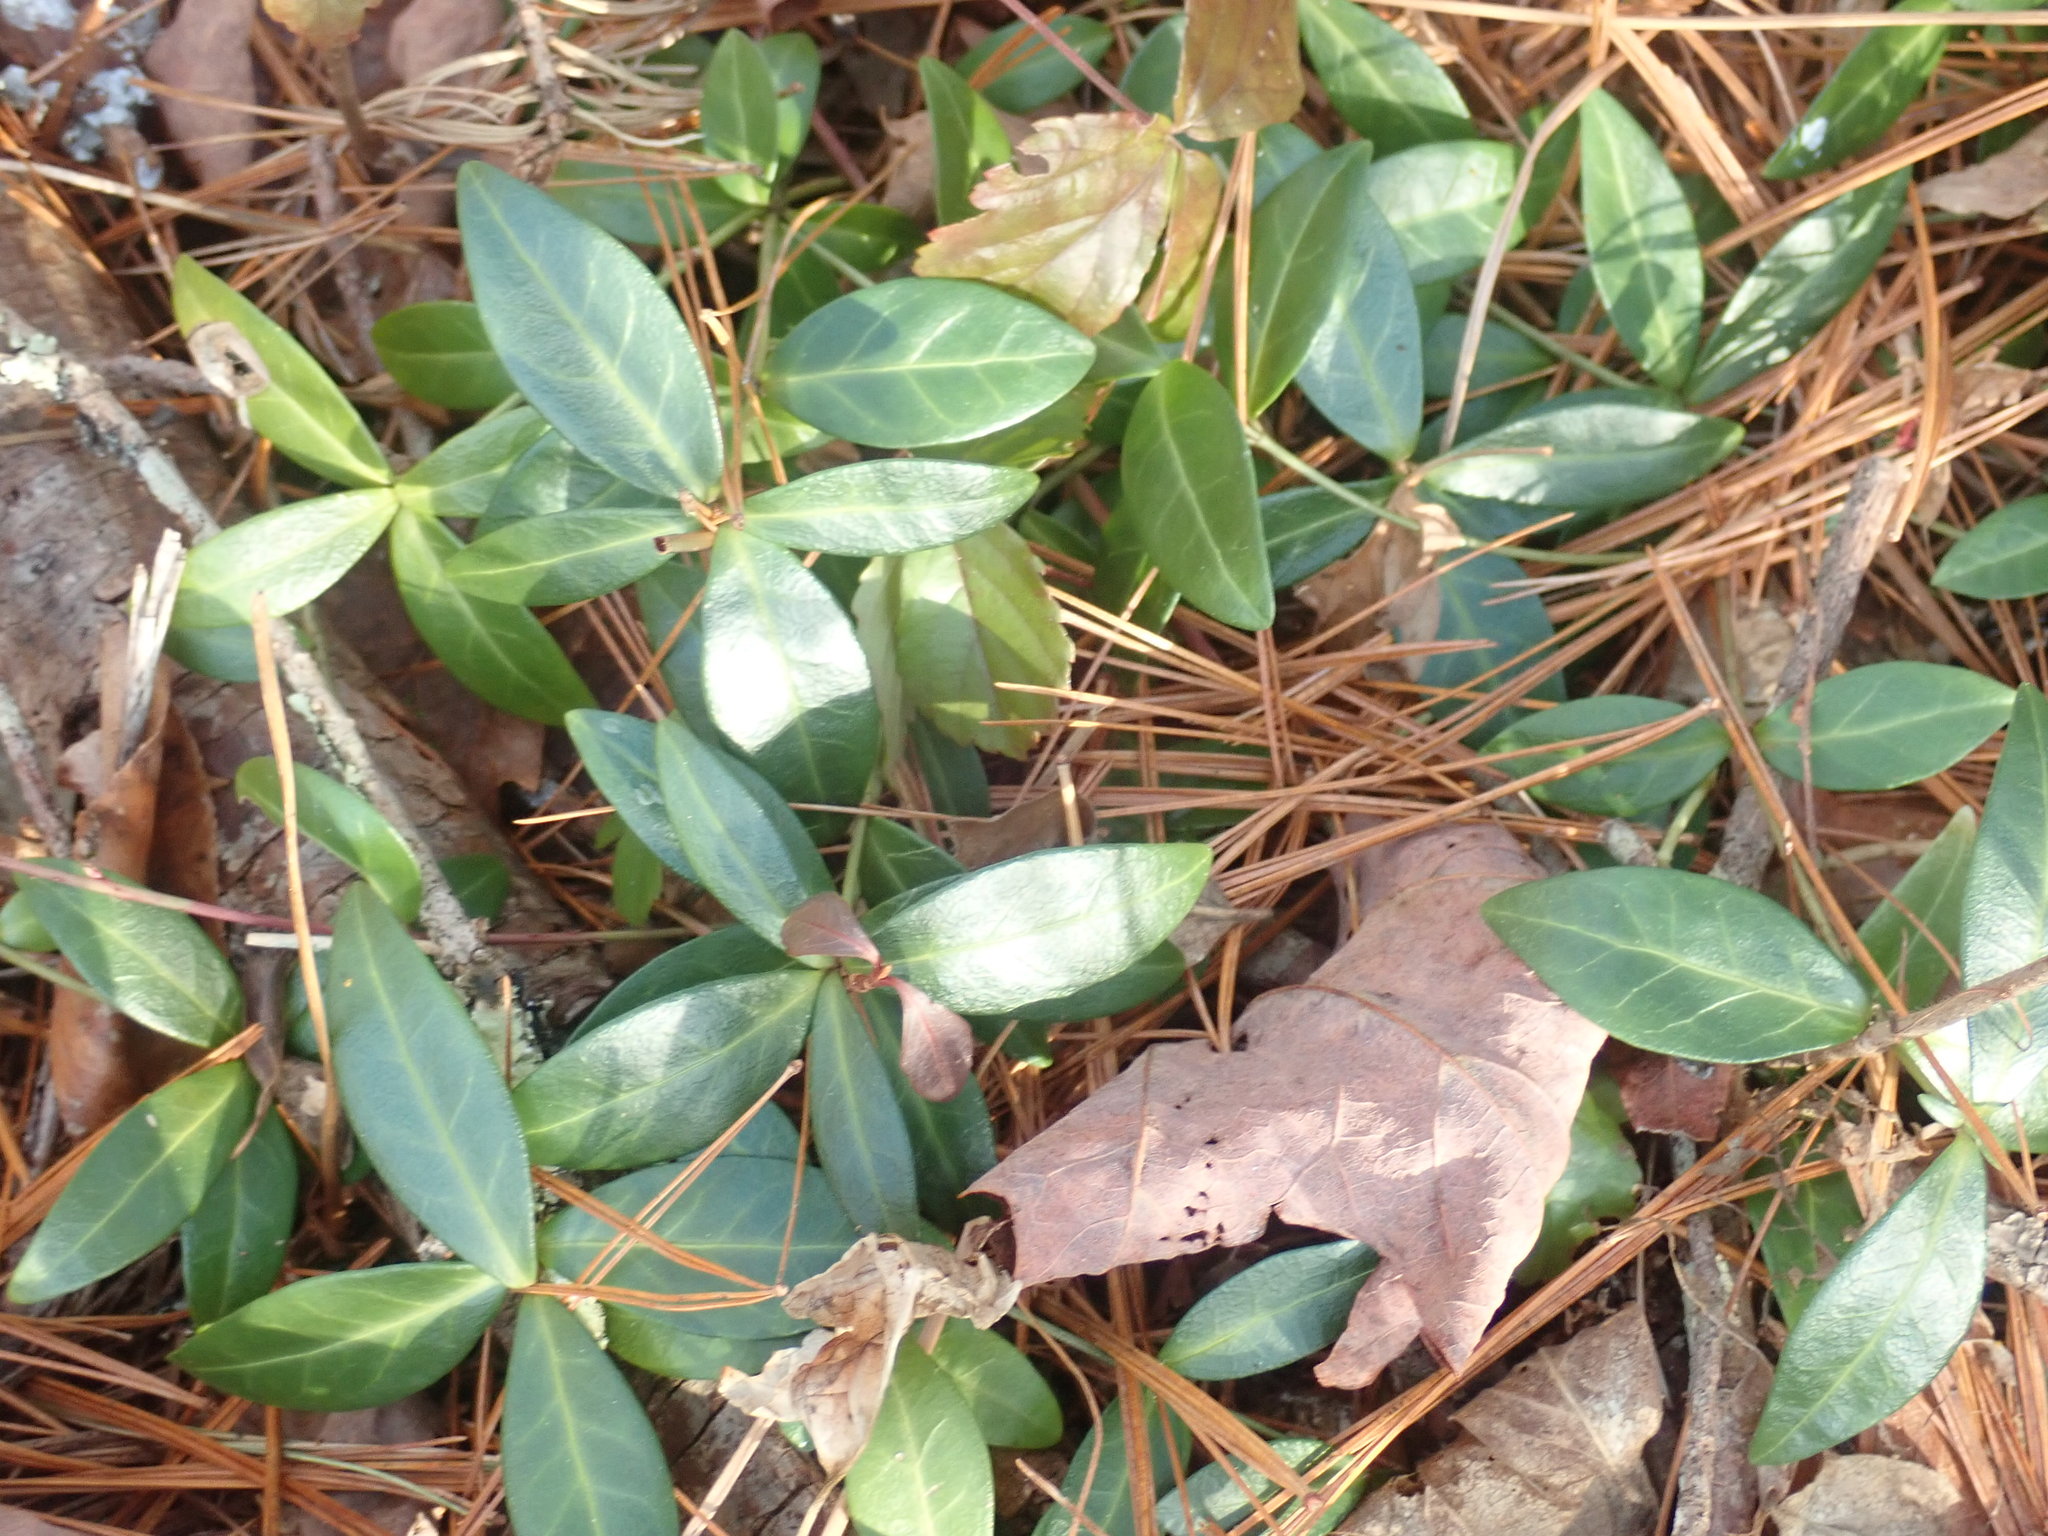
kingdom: Plantae
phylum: Tracheophyta
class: Magnoliopsida
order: Gentianales
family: Apocynaceae
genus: Vinca
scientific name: Vinca minor
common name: Lesser periwinkle
